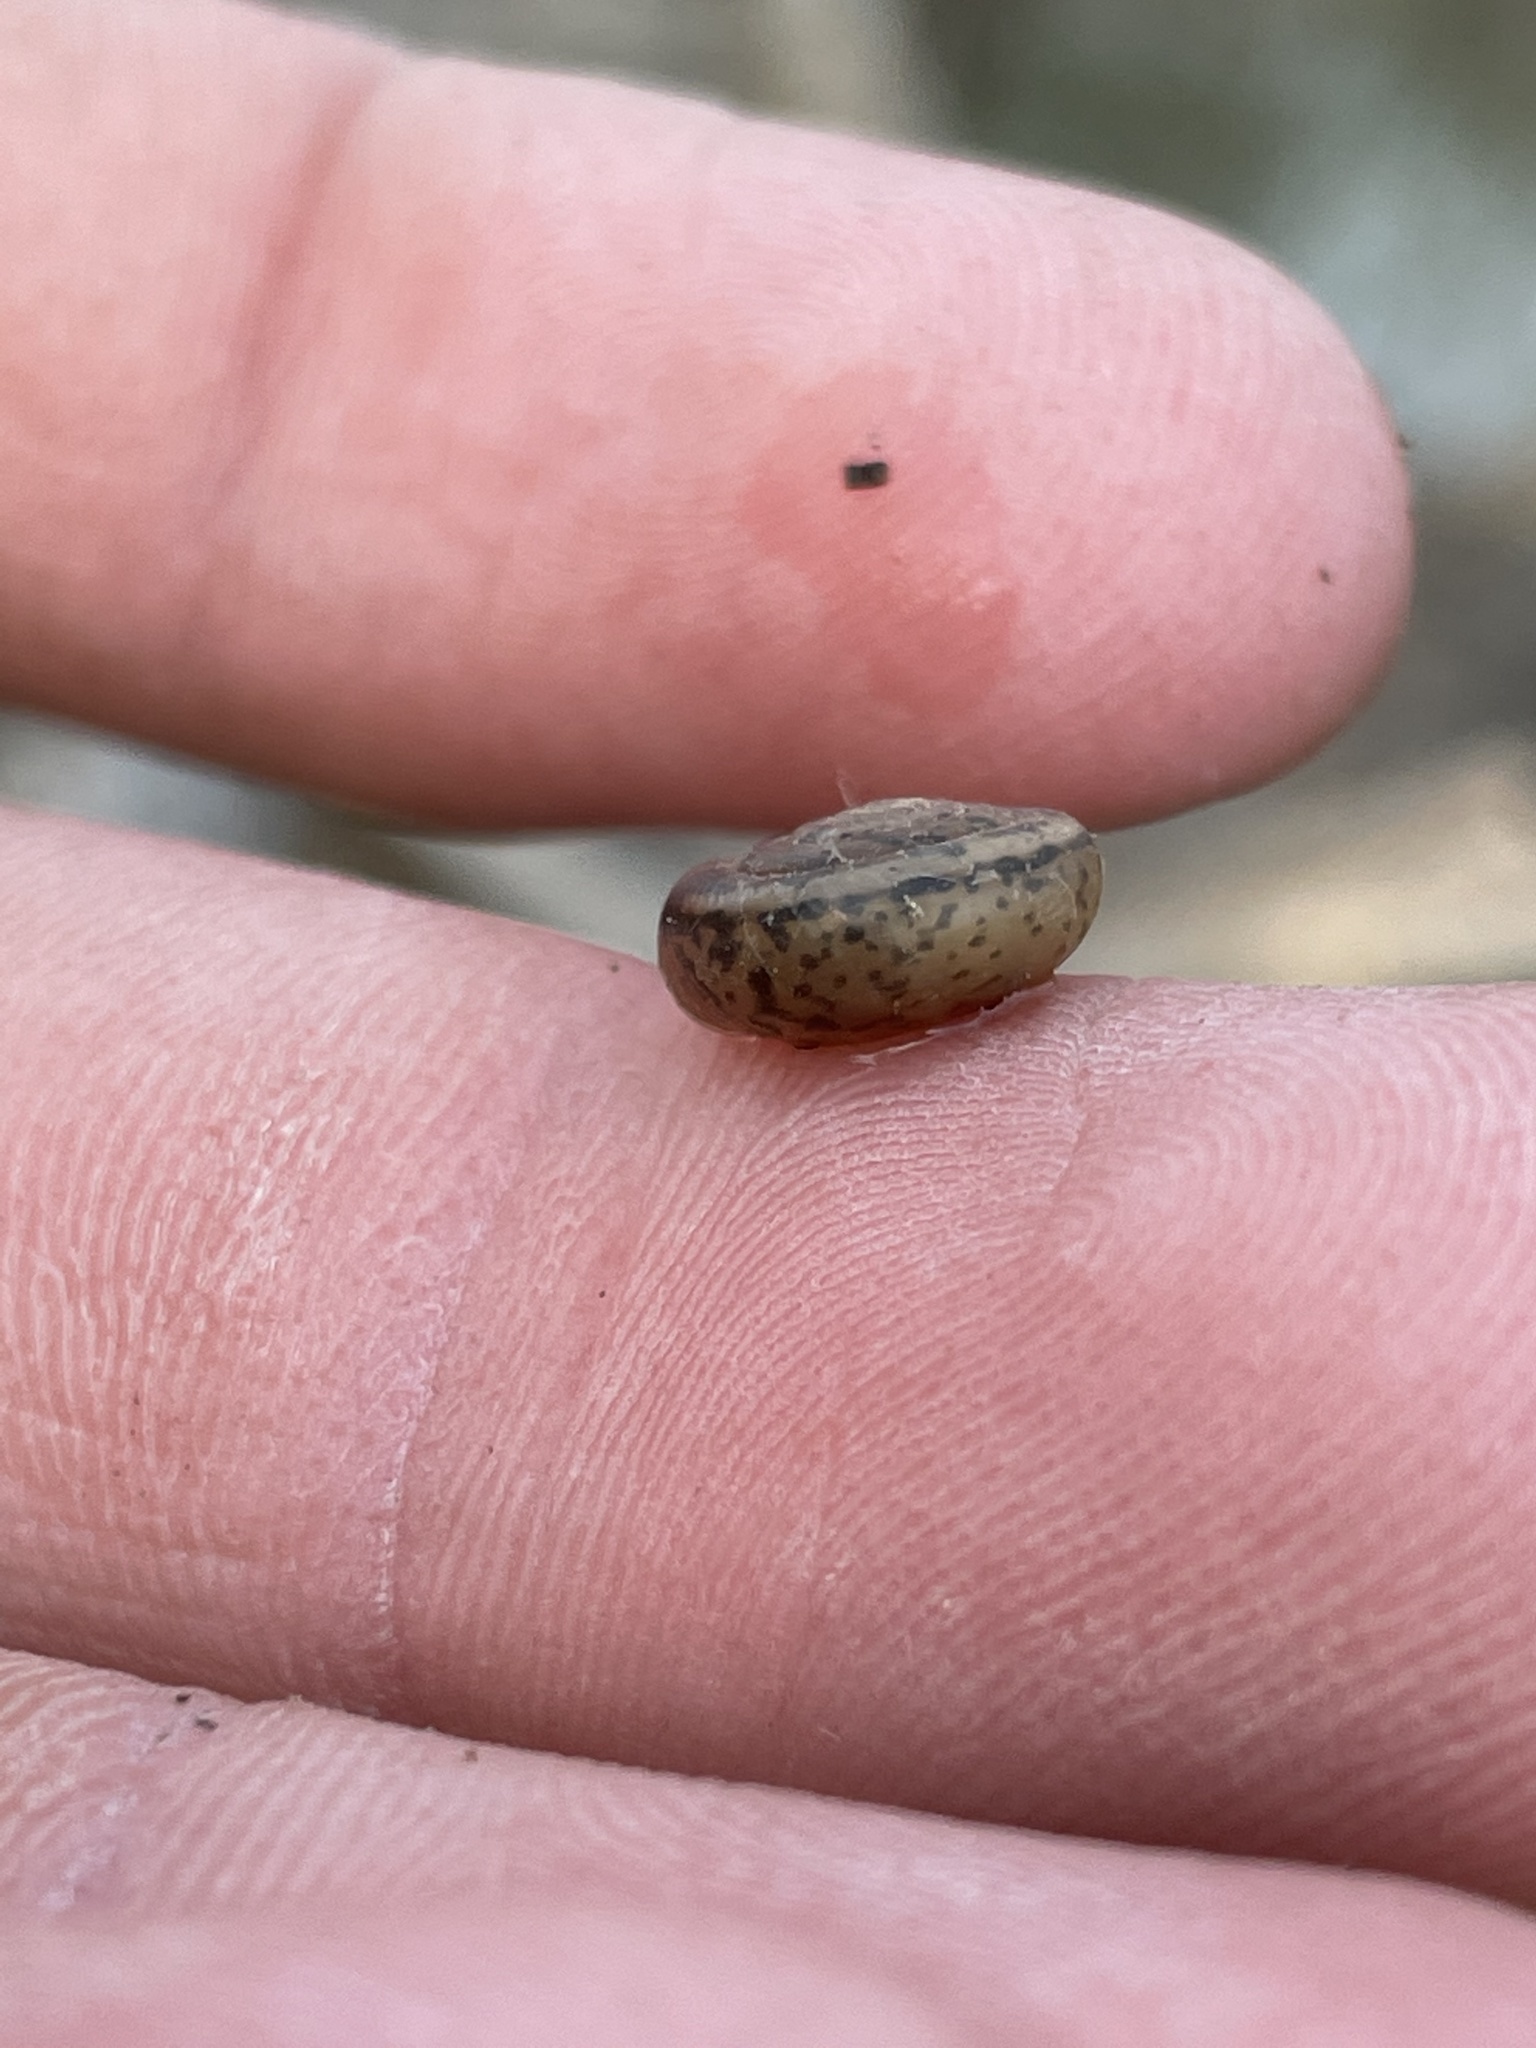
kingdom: Animalia
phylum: Mollusca
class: Gastropoda
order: Stylommatophora
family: Polygyridae
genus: Linisa
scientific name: Linisa texasiana
